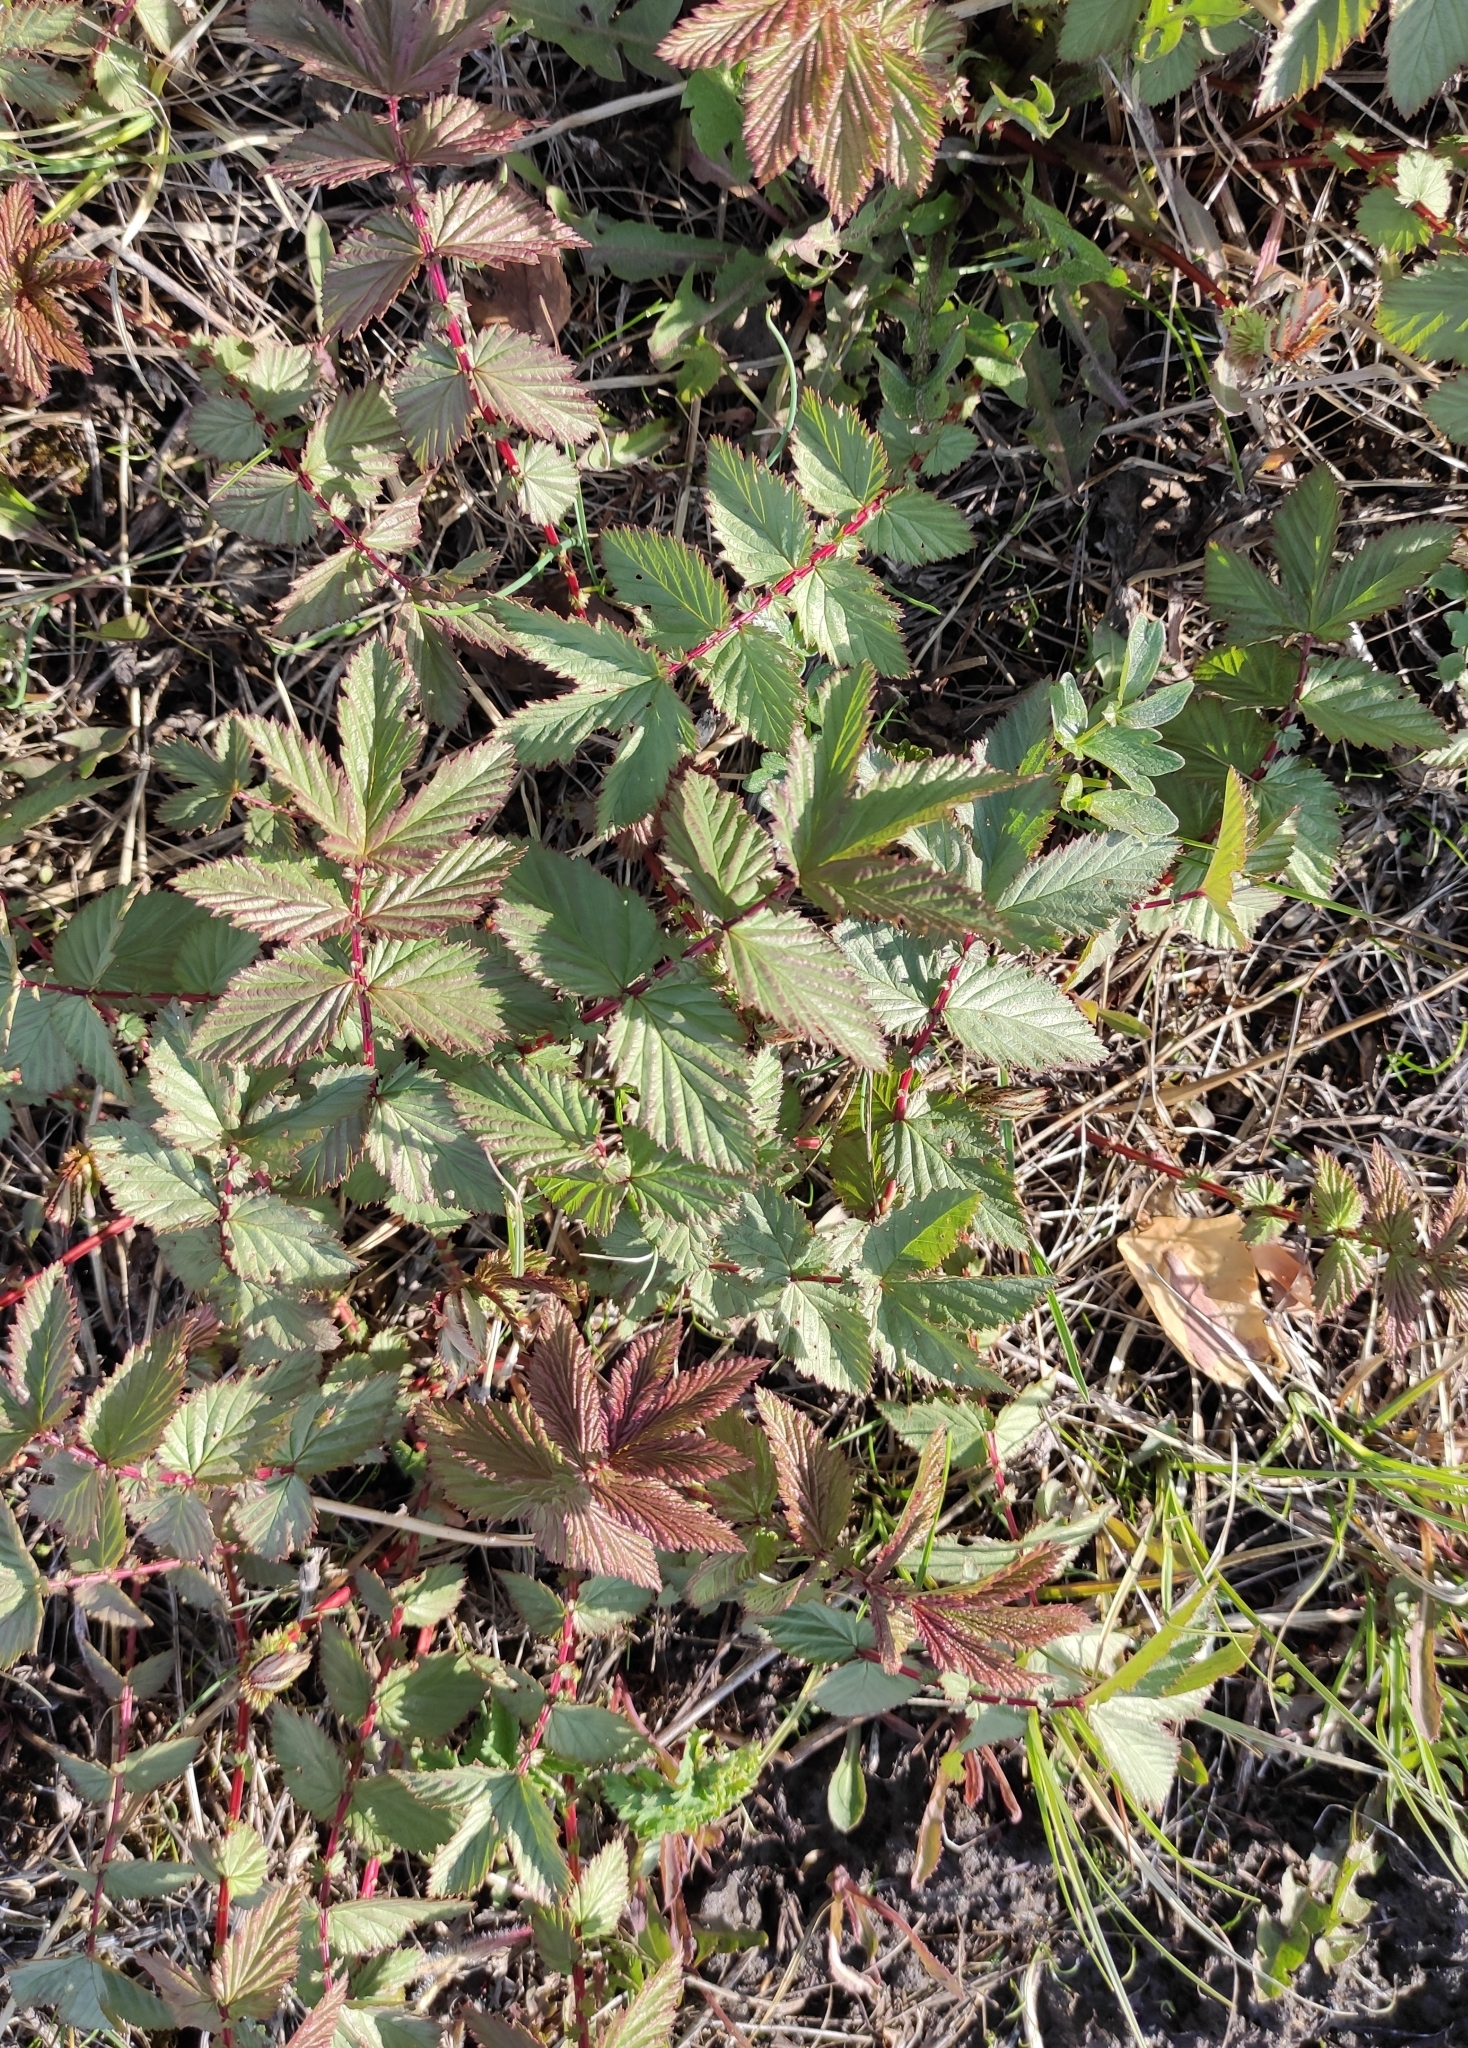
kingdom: Plantae
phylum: Tracheophyta
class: Magnoliopsida
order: Rosales
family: Rosaceae
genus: Filipendula
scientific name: Filipendula ulmaria
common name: Meadowsweet
